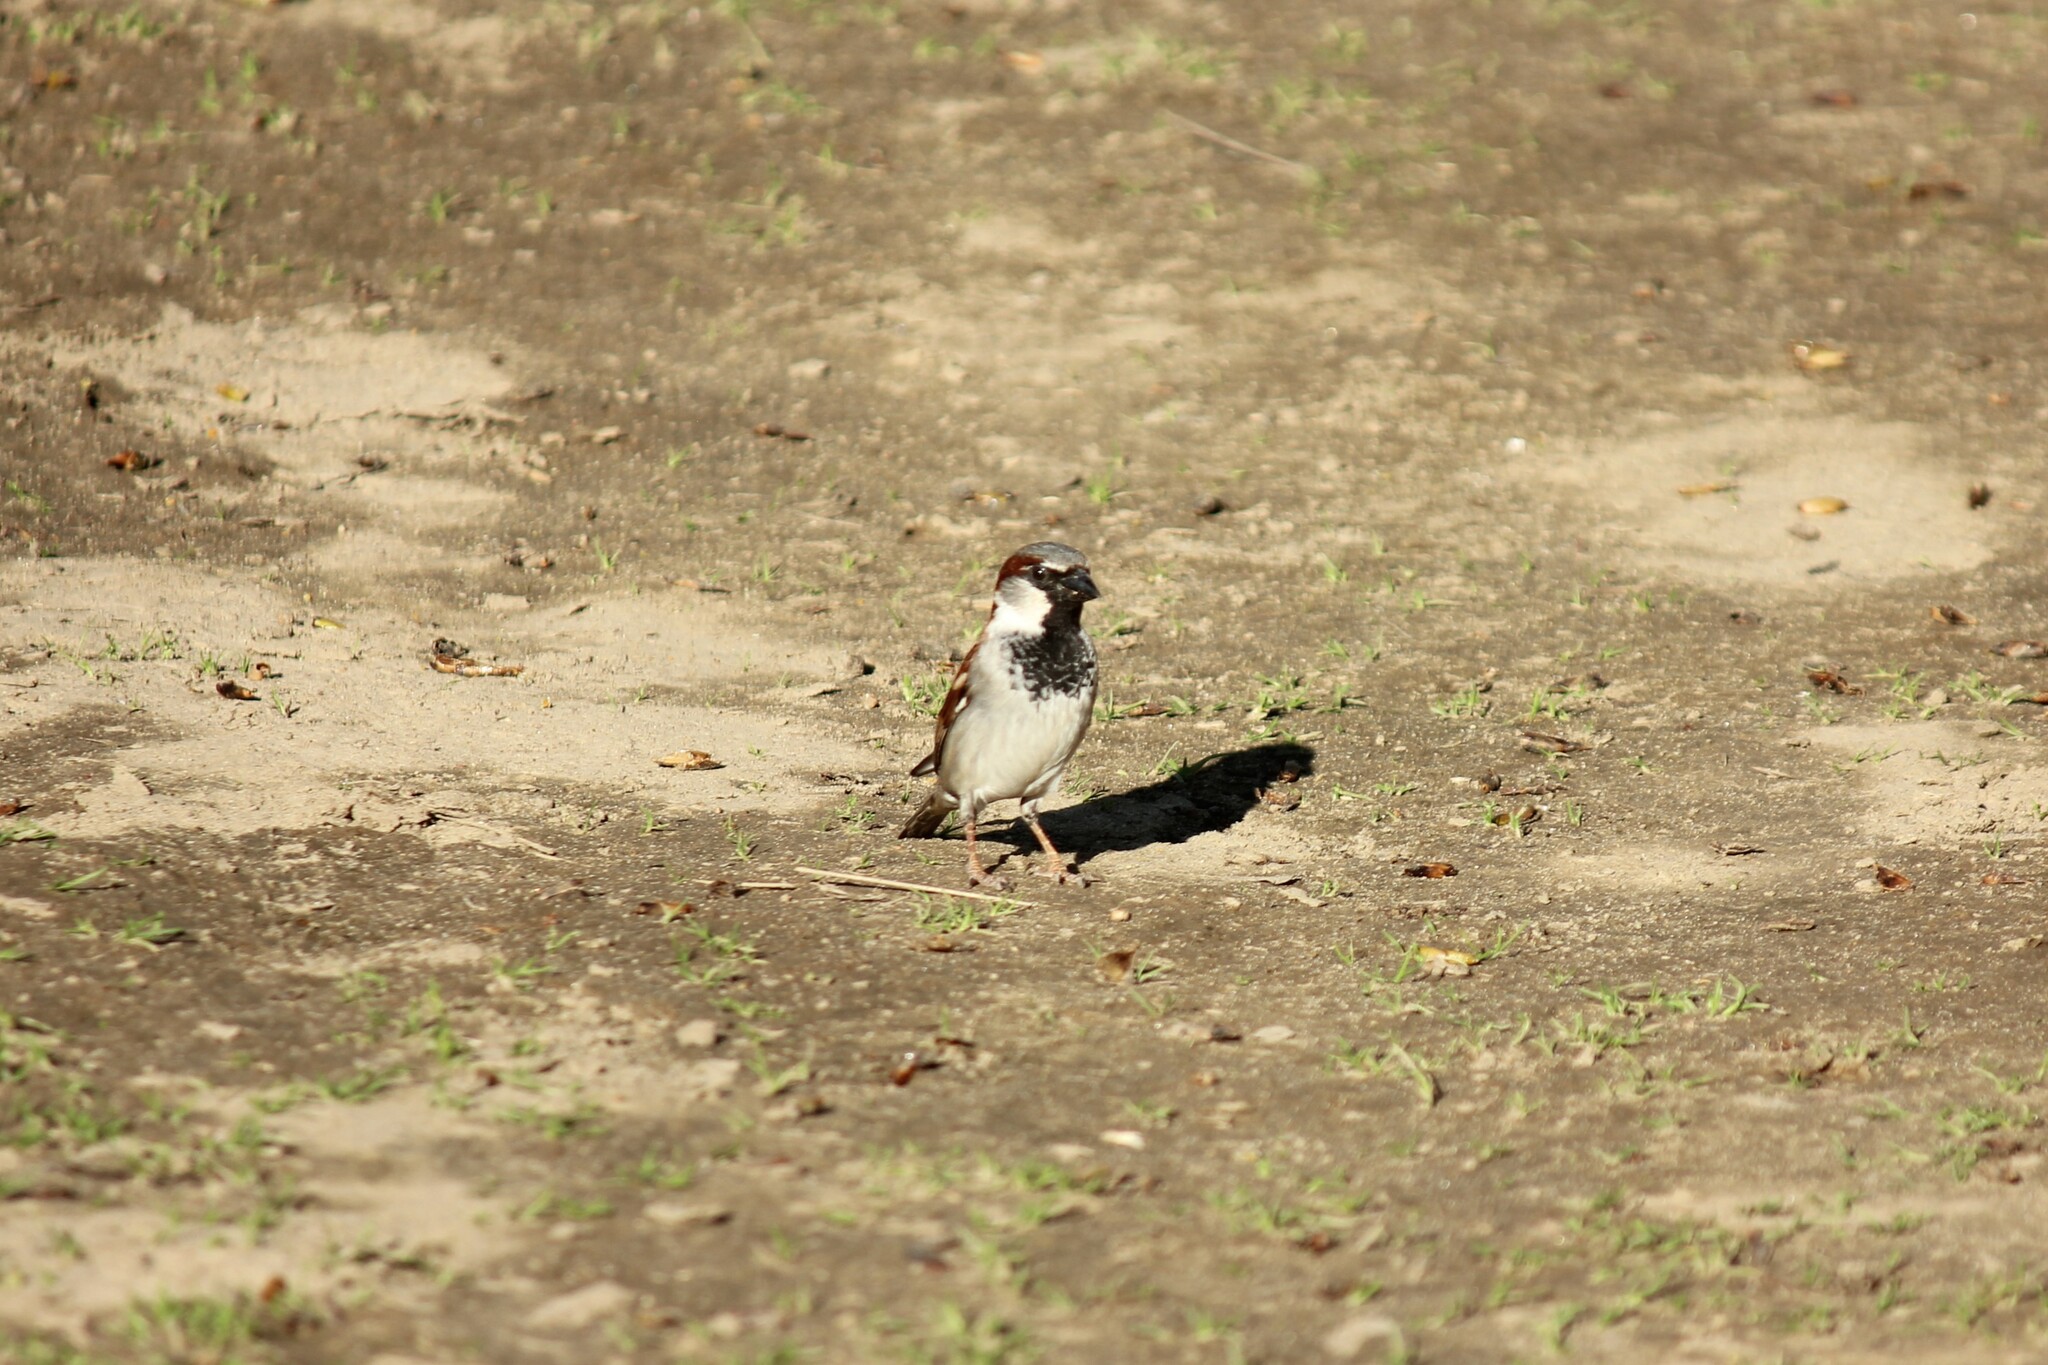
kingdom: Animalia
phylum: Chordata
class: Aves
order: Passeriformes
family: Passeridae
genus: Passer
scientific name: Passer domesticus
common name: House sparrow
